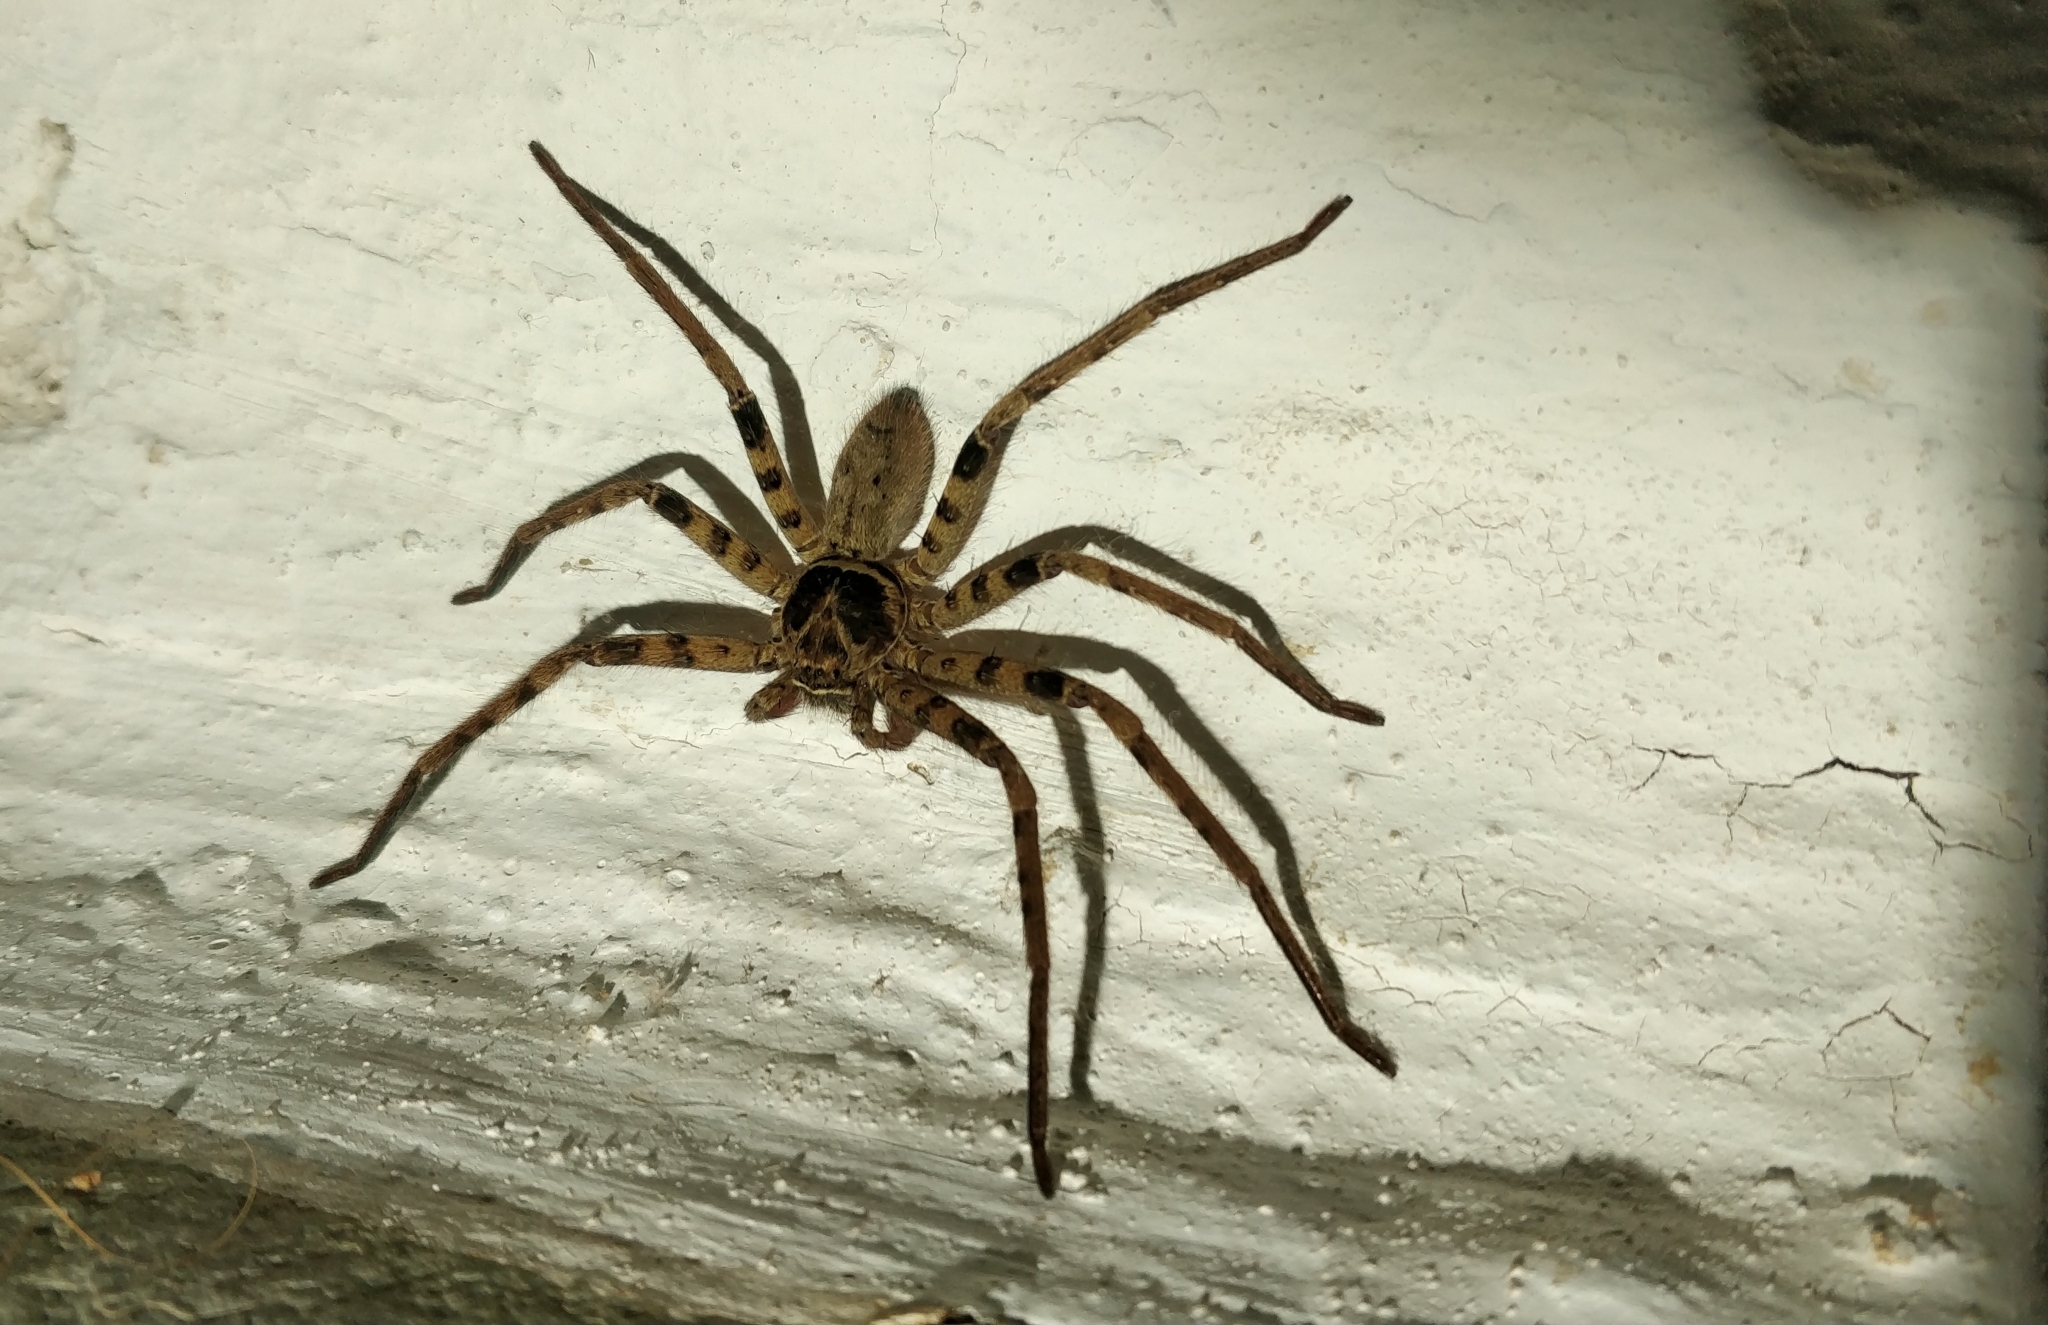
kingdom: Animalia
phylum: Arthropoda
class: Arachnida
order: Araneae
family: Sparassidae
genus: Heteropoda
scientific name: Heteropoda venatoria
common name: Huntsman spider
